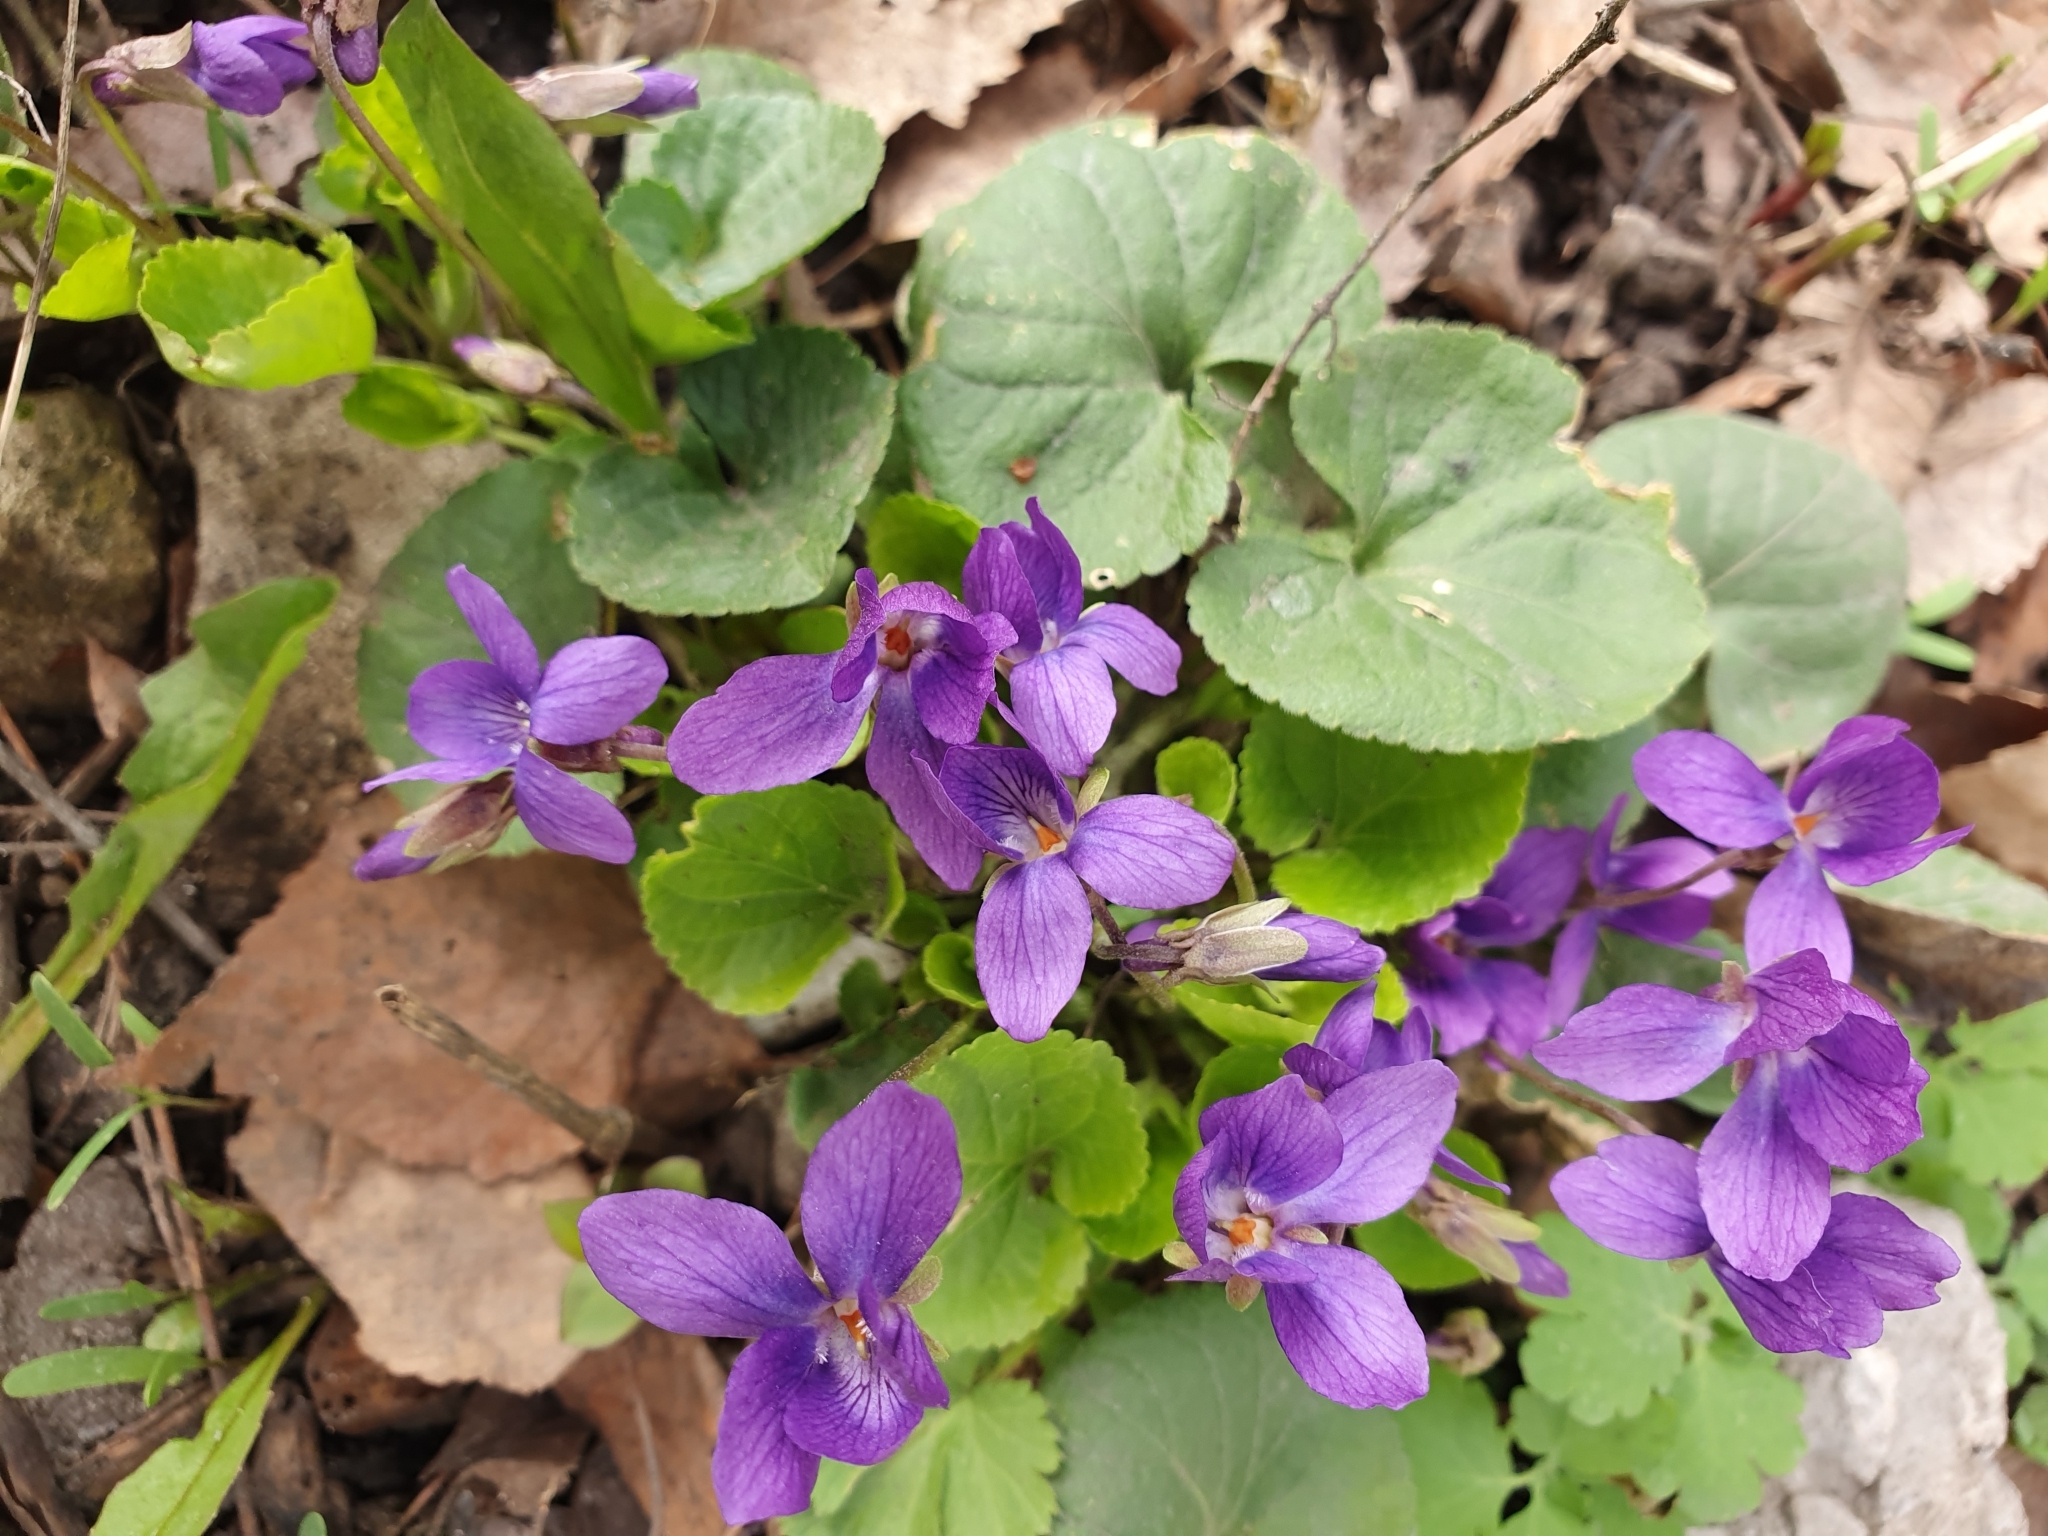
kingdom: Plantae
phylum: Tracheophyta
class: Magnoliopsida
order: Malpighiales
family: Violaceae
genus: Viola
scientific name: Viola odorata
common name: Sweet violet
